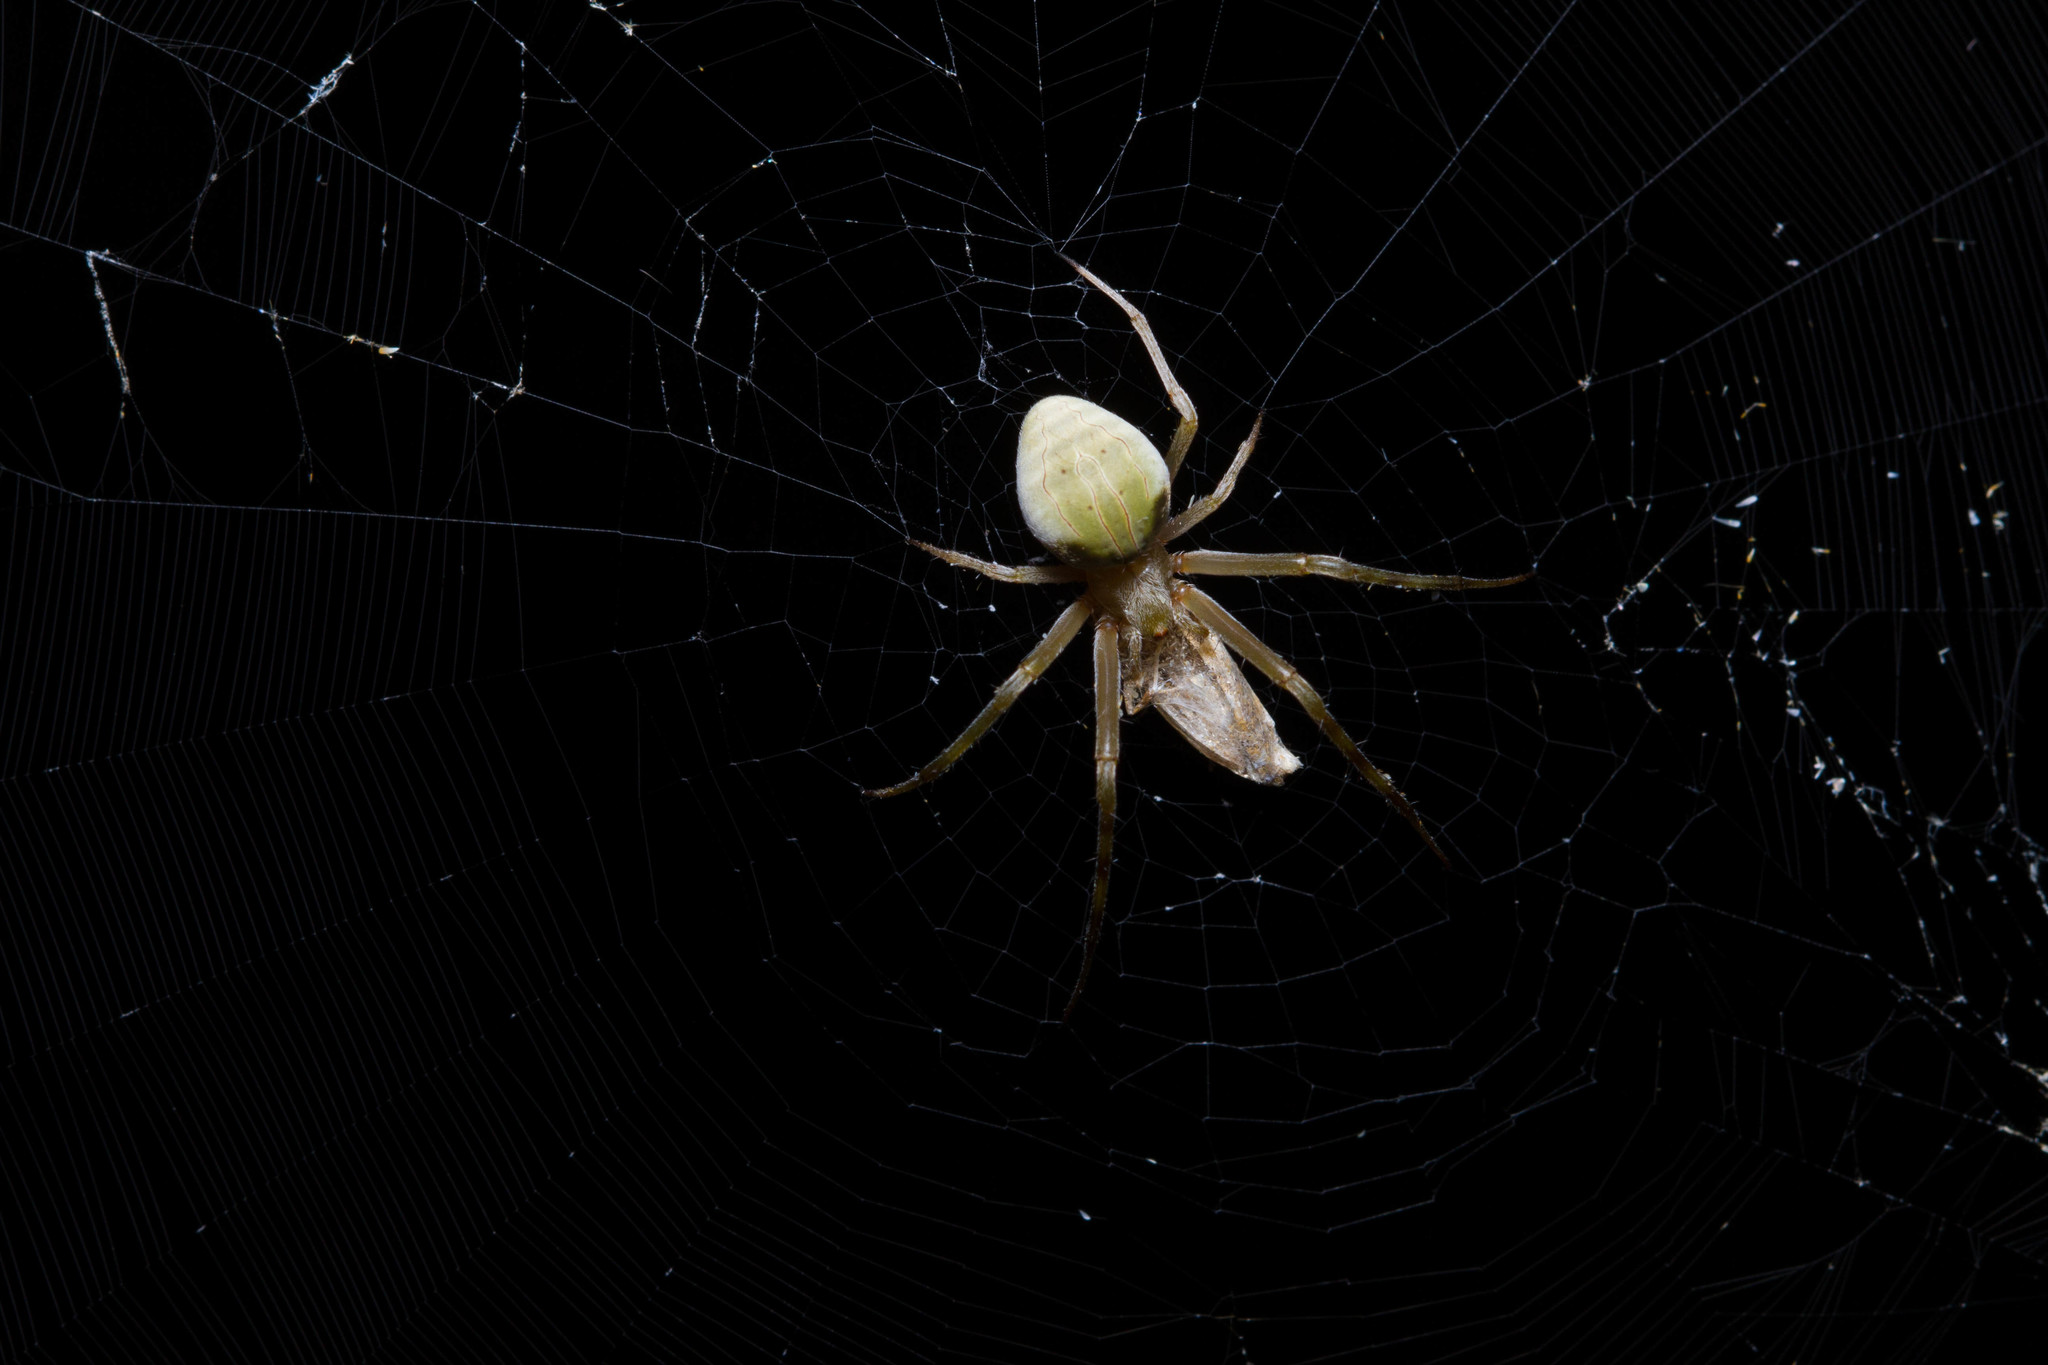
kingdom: Animalia
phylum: Arthropoda
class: Arachnida
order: Araneae
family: Araneidae
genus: Acacesia
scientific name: Acacesia hamata
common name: Orb weavers
